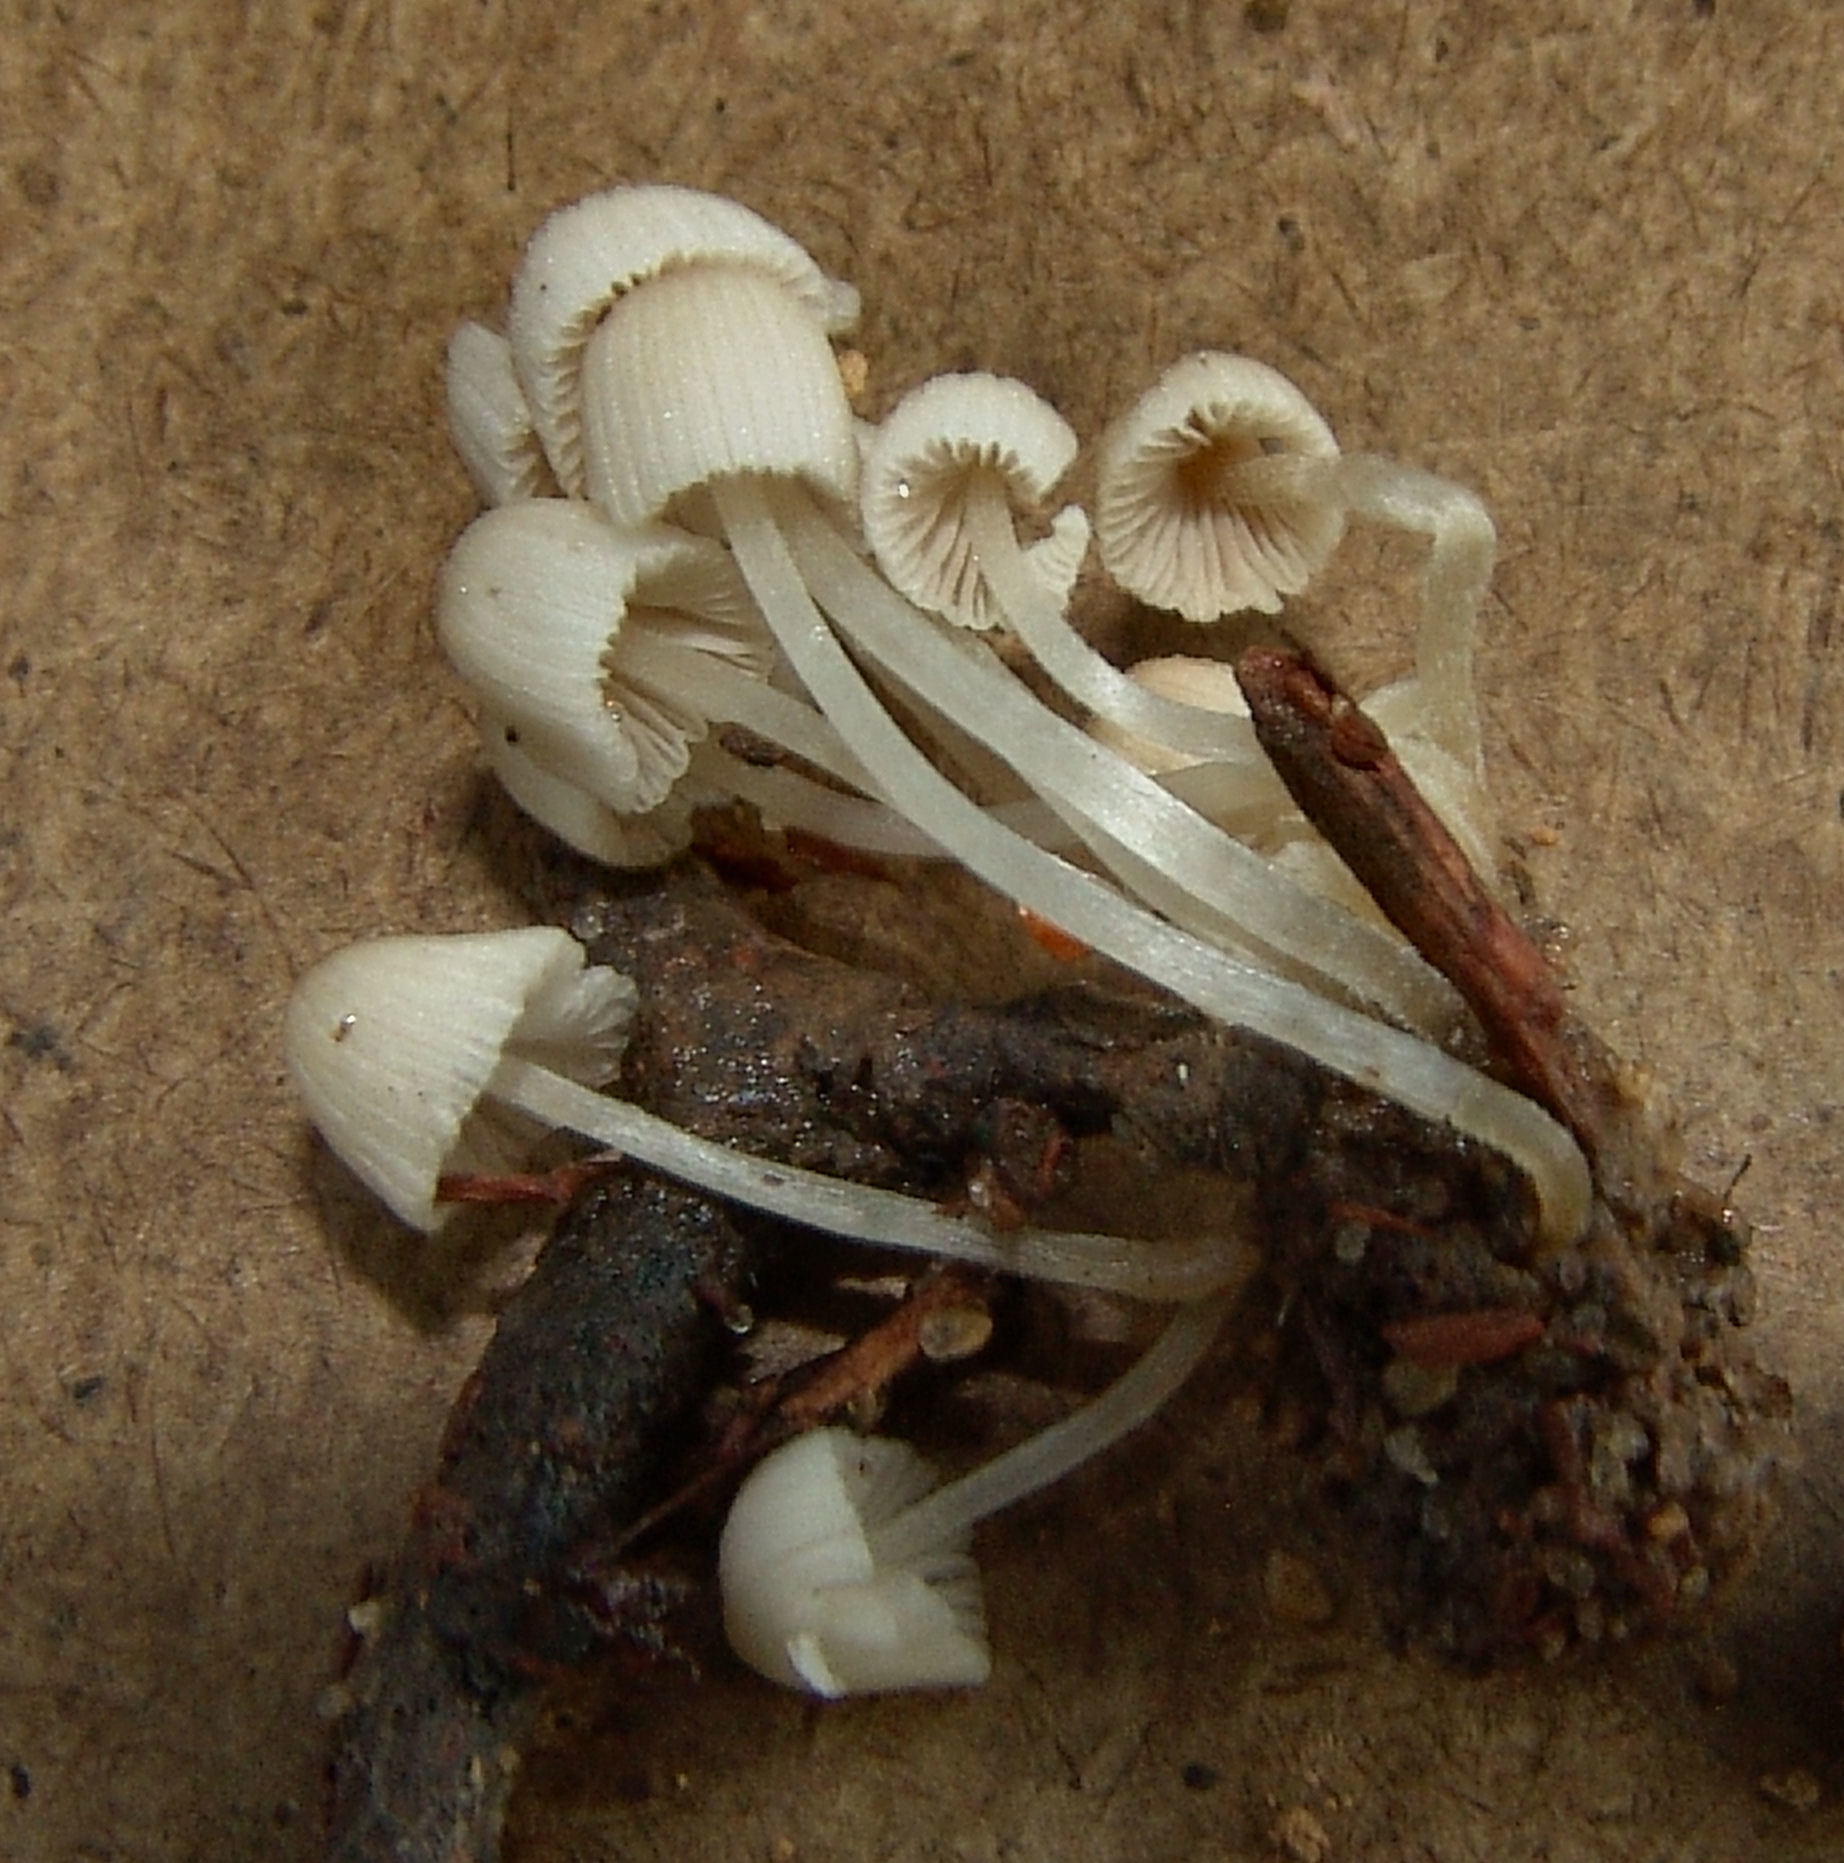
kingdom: Fungi
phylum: Basidiomycota
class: Agaricomycetes
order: Agaricales
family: Psathyrellaceae
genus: Coprinellus
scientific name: Coprinellus disseminatus
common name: Fairies' bonnets
